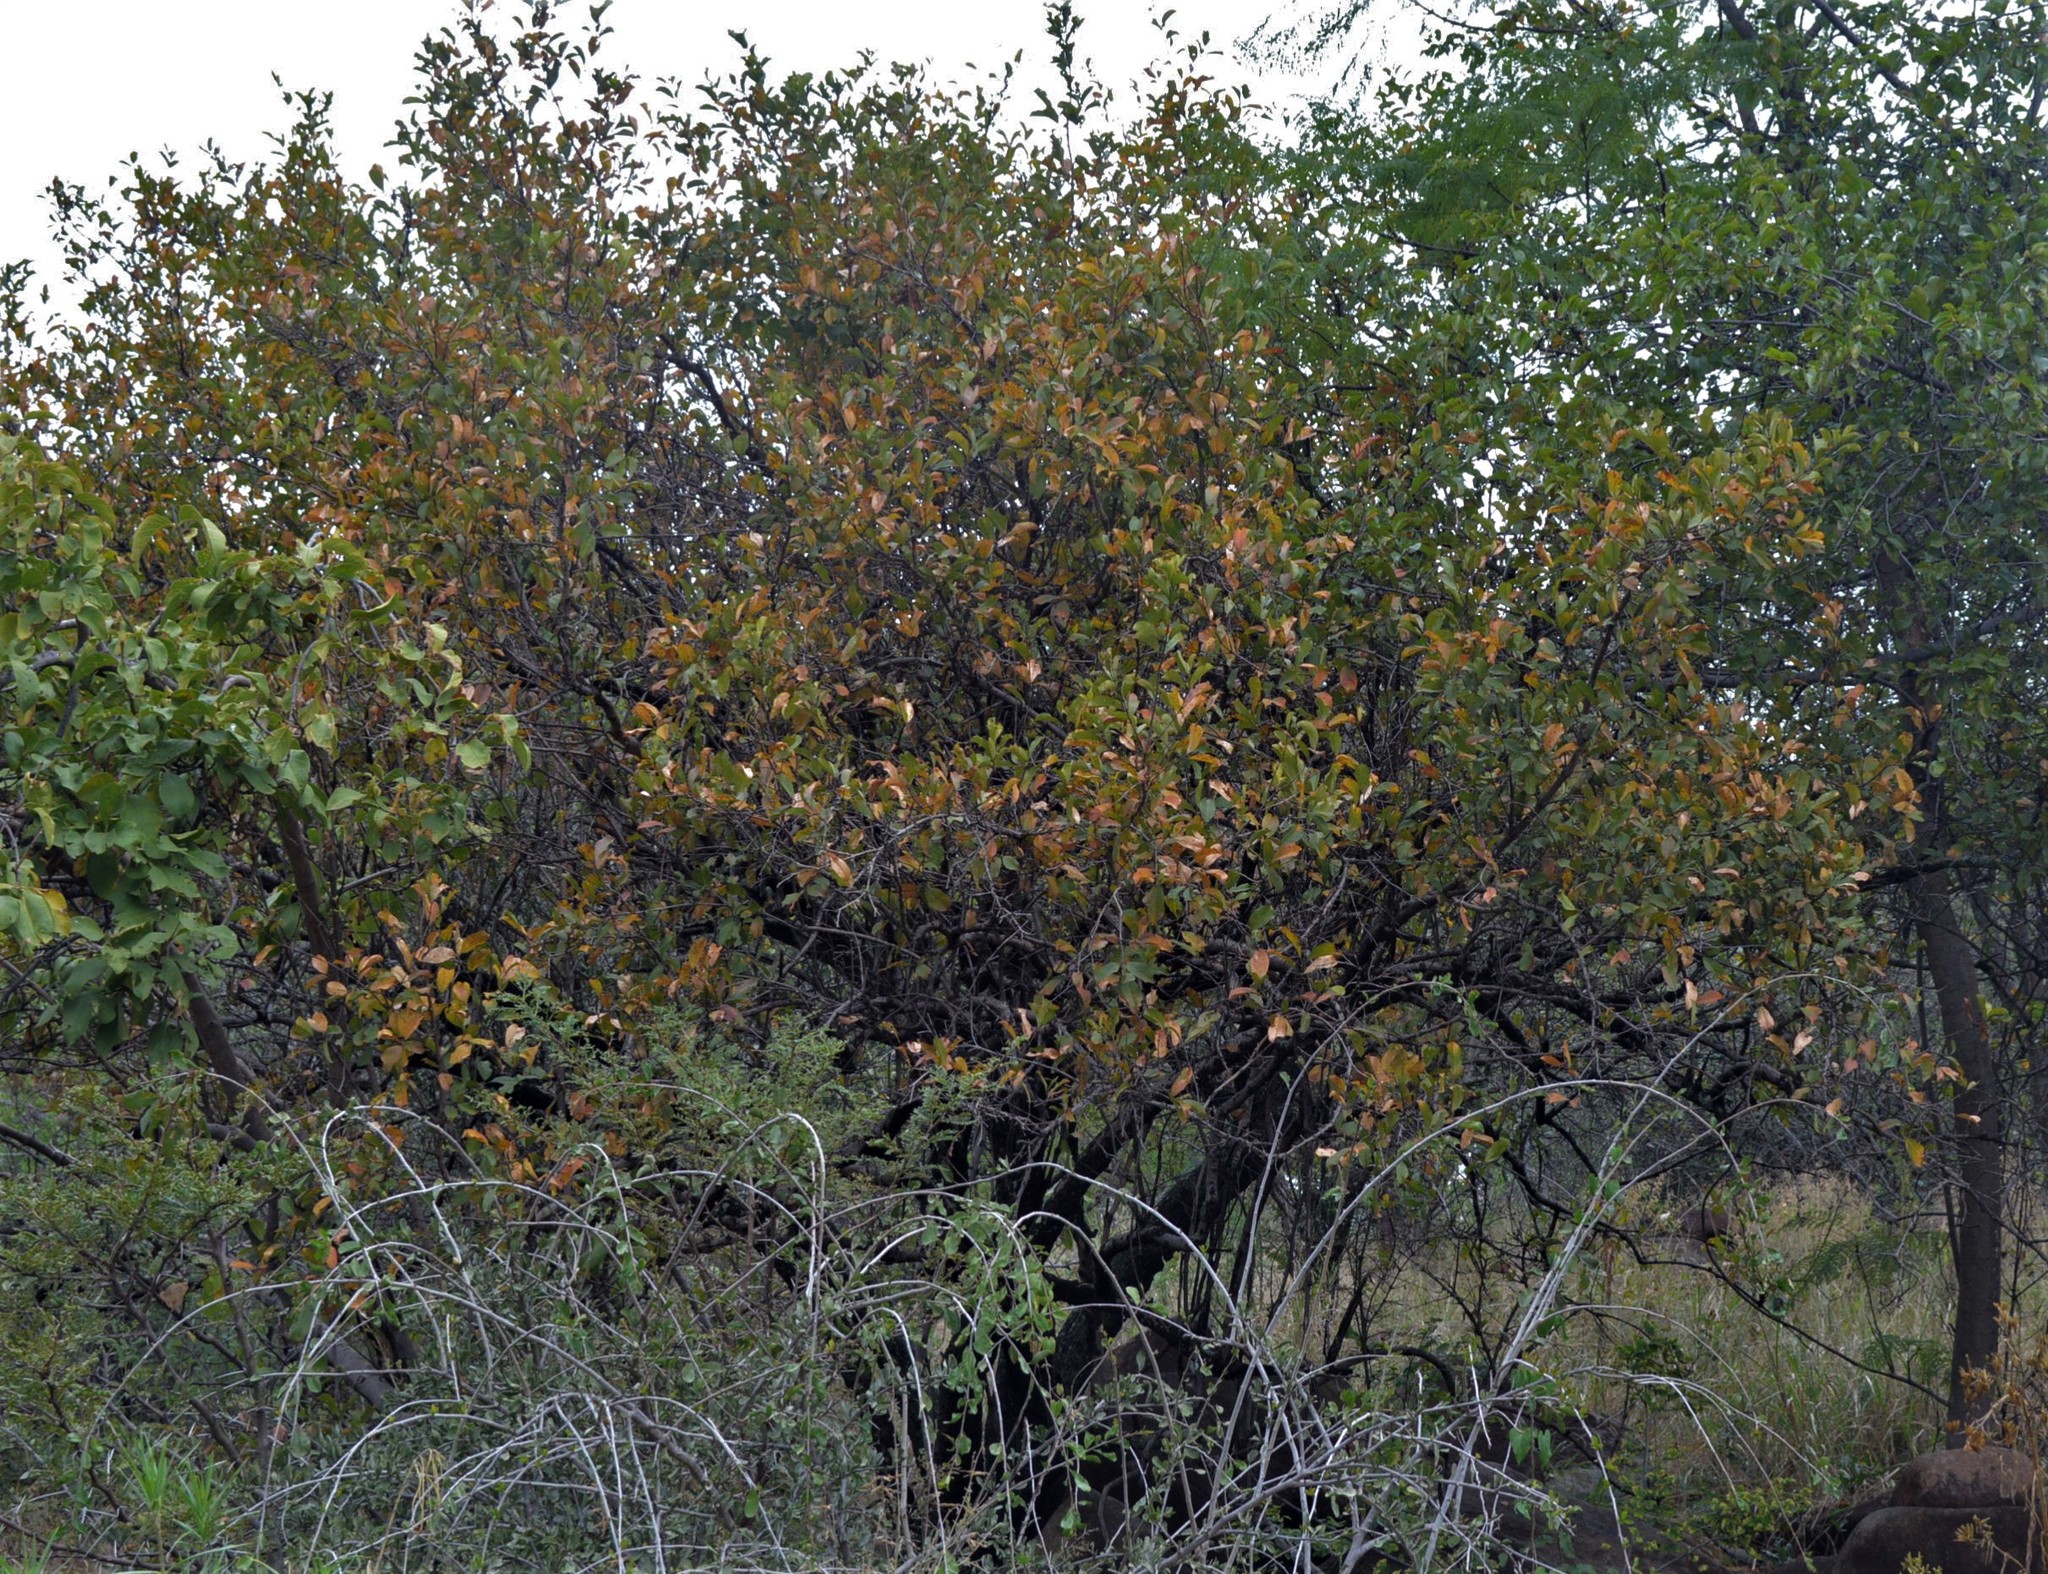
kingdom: Plantae
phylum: Tracheophyta
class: Magnoliopsida
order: Myrtales
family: Combretaceae
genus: Combretum
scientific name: Combretum apiculatum
